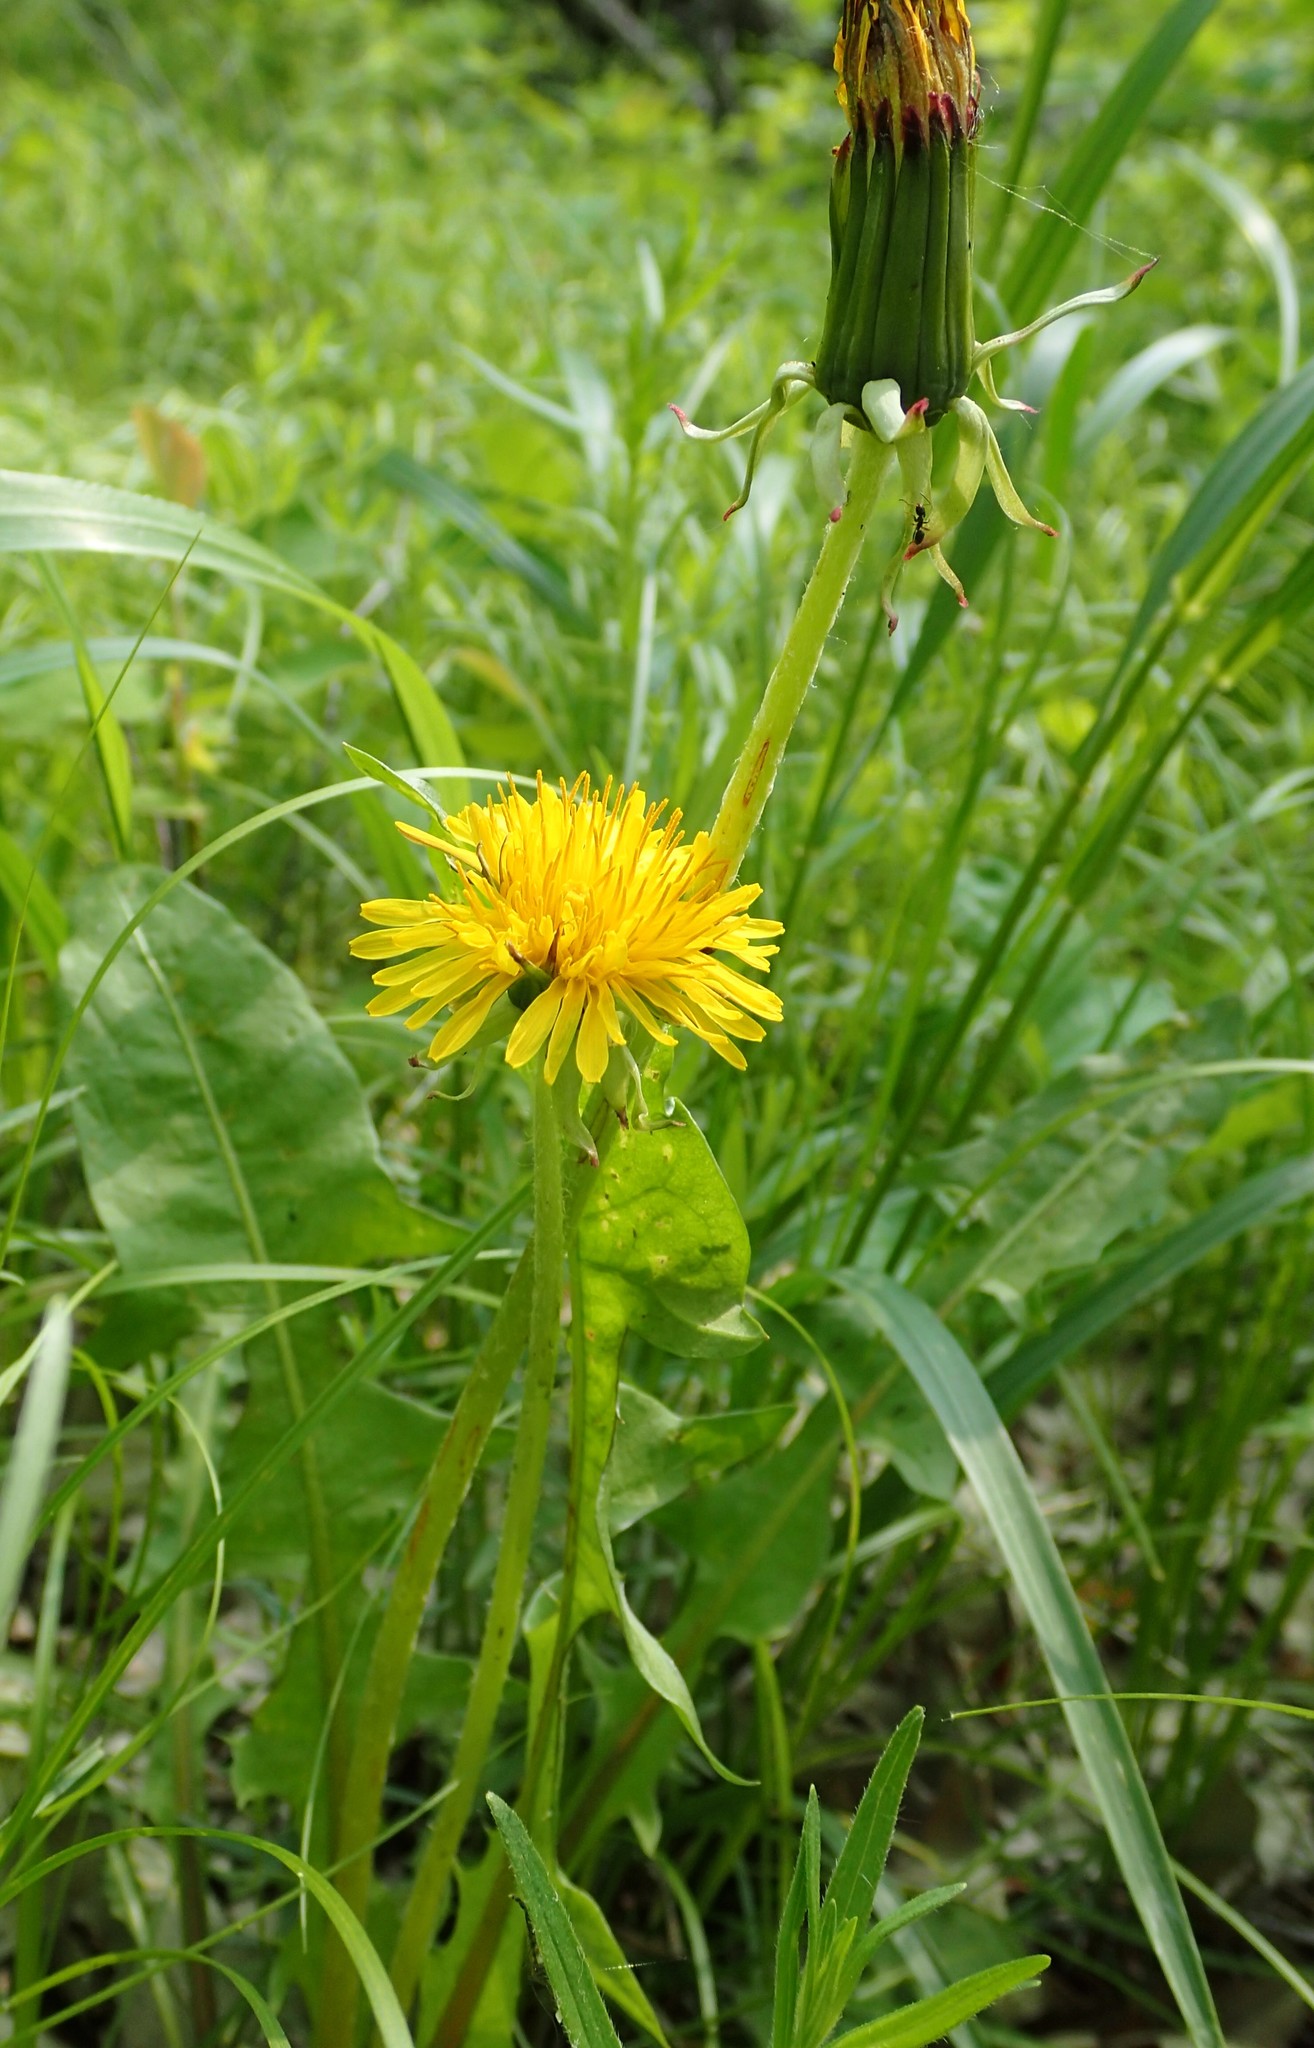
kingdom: Plantae
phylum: Tracheophyta
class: Magnoliopsida
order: Asterales
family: Asteraceae
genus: Taraxacum
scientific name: Taraxacum officinale
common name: Common dandelion
